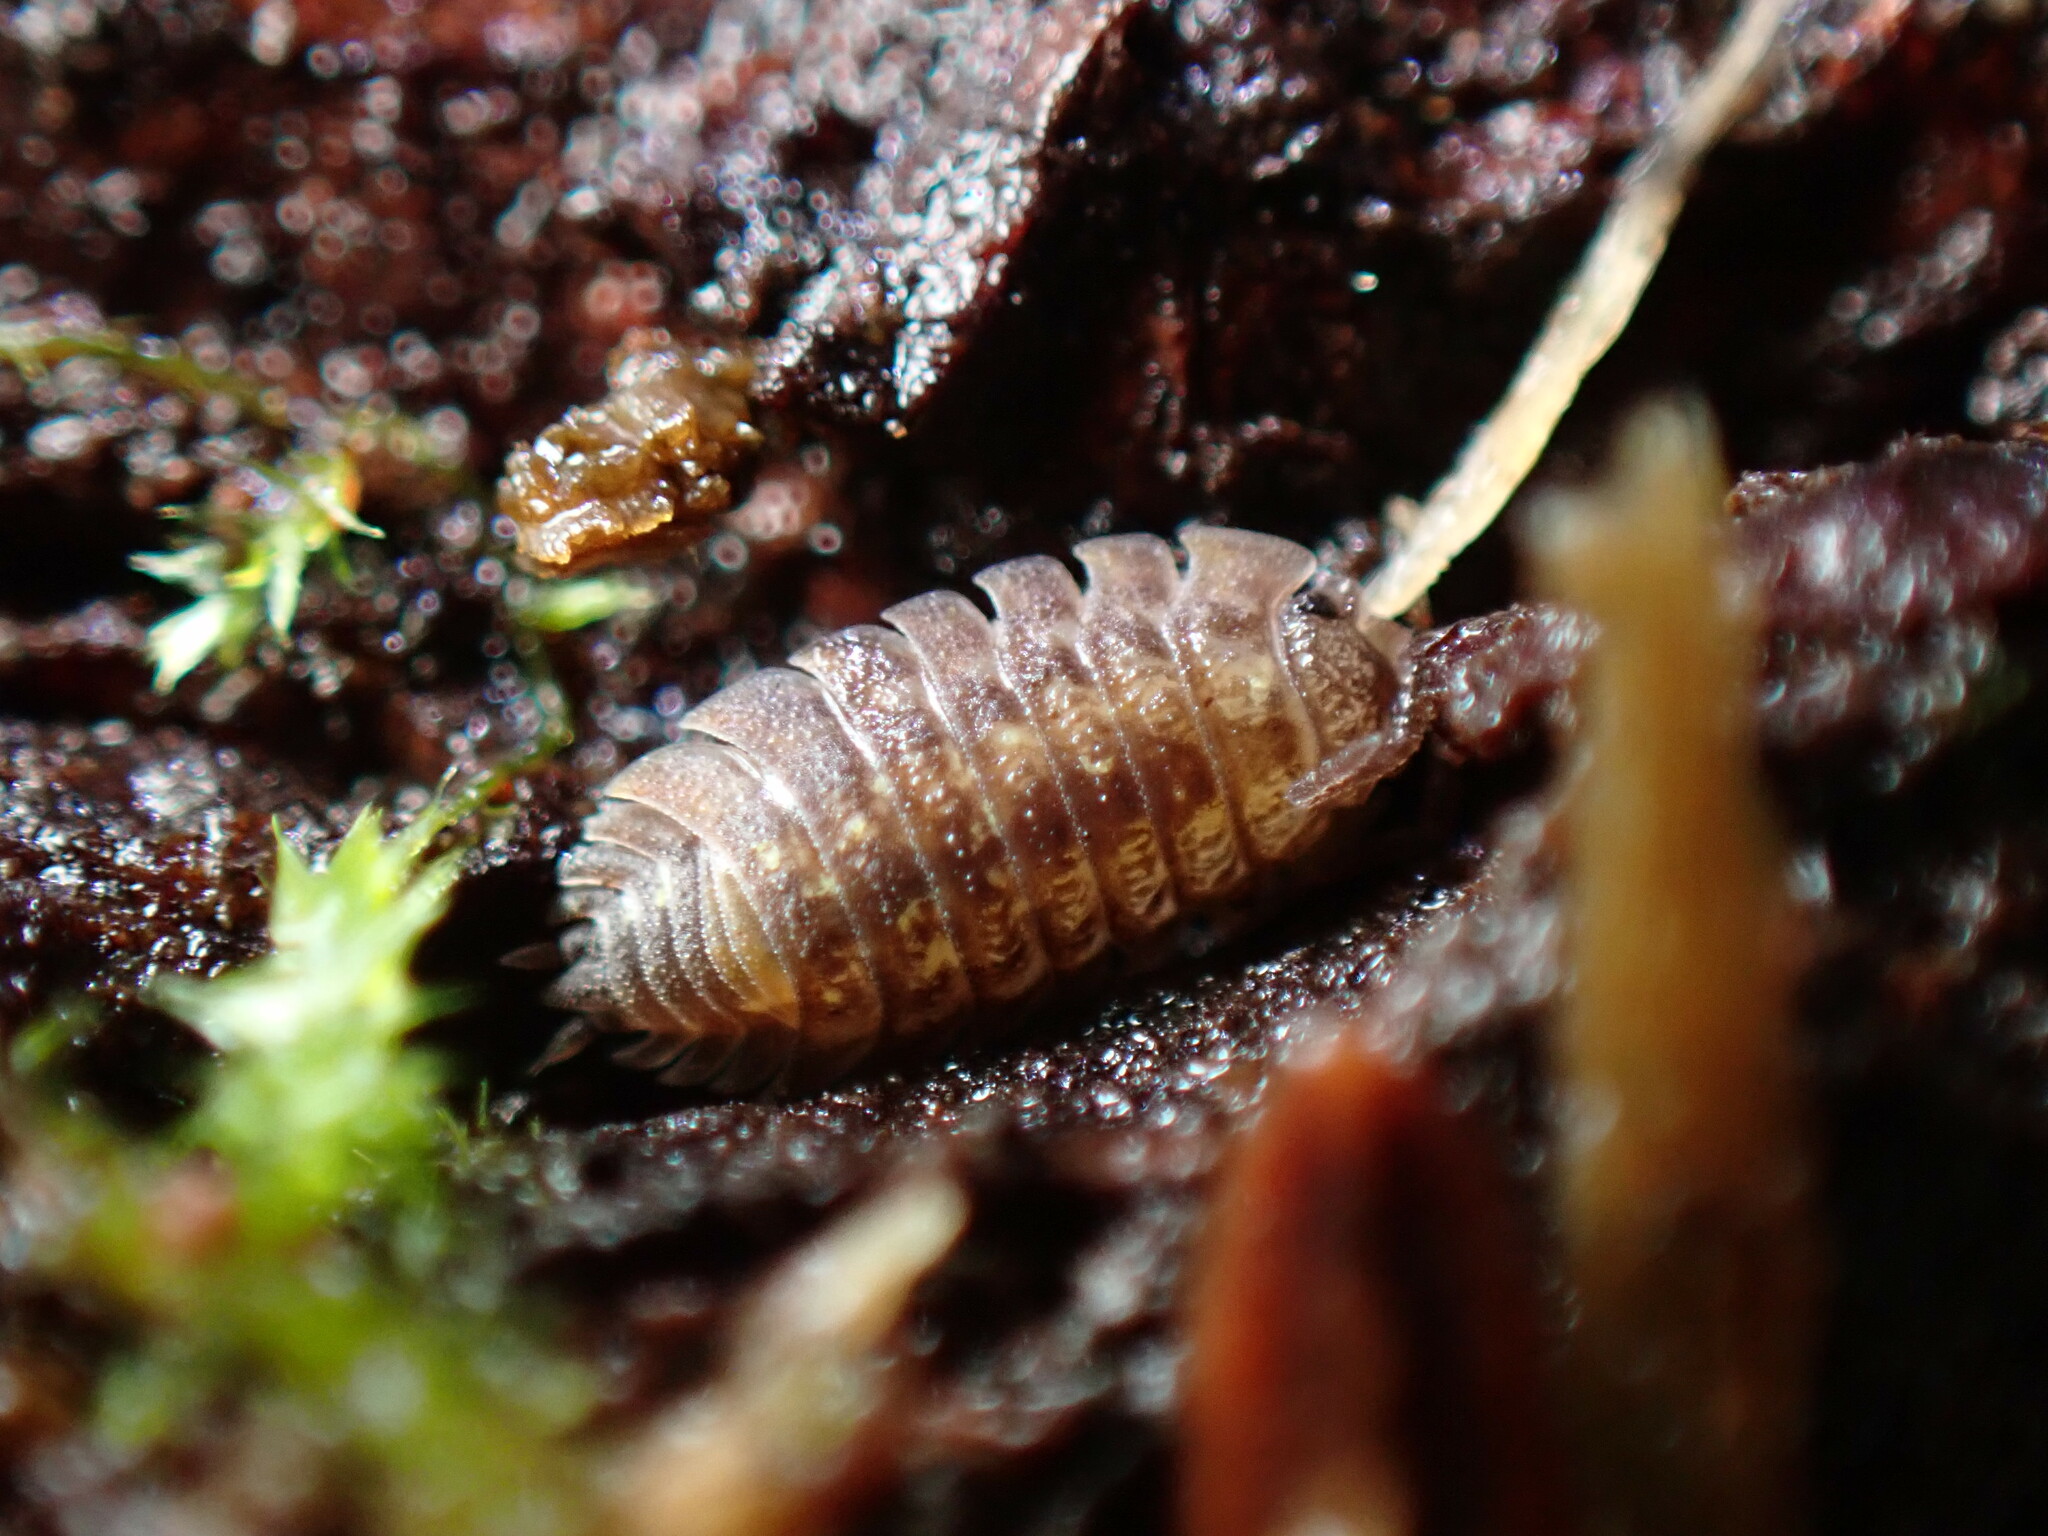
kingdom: Animalia
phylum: Arthropoda
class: Malacostraca
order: Isopoda
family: Oniscidae
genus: Oniscus
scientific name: Oniscus asellus
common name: Common shiny woodlouse
